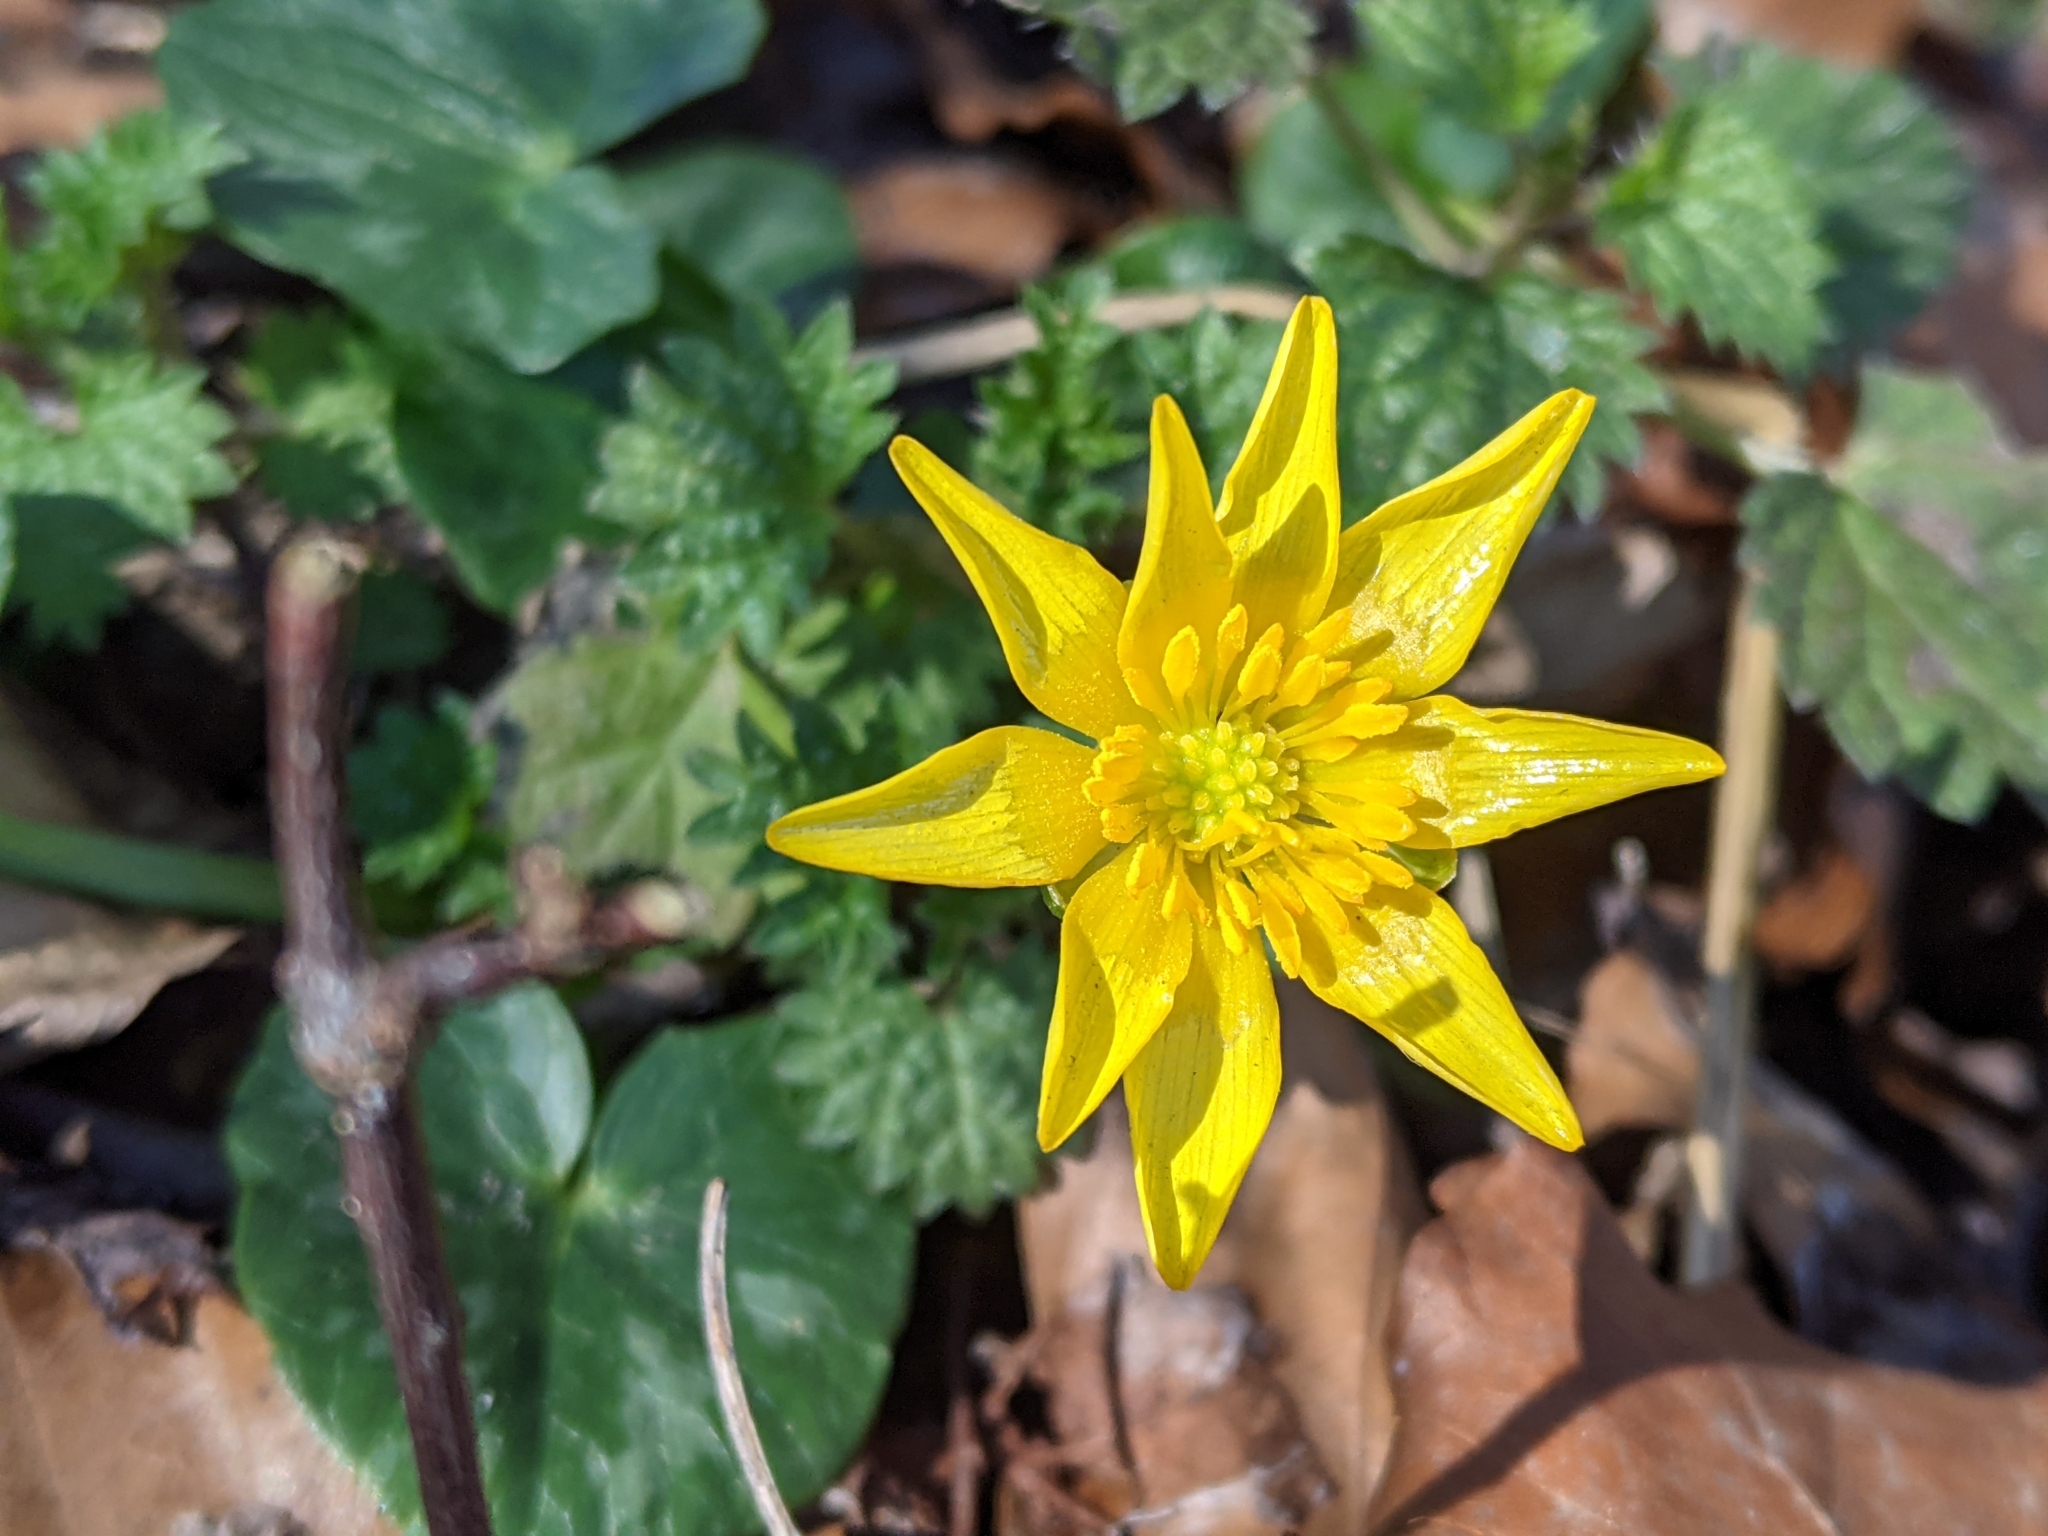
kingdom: Plantae
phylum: Tracheophyta
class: Magnoliopsida
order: Ranunculales
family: Ranunculaceae
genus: Ficaria
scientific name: Ficaria verna
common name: Lesser celandine
